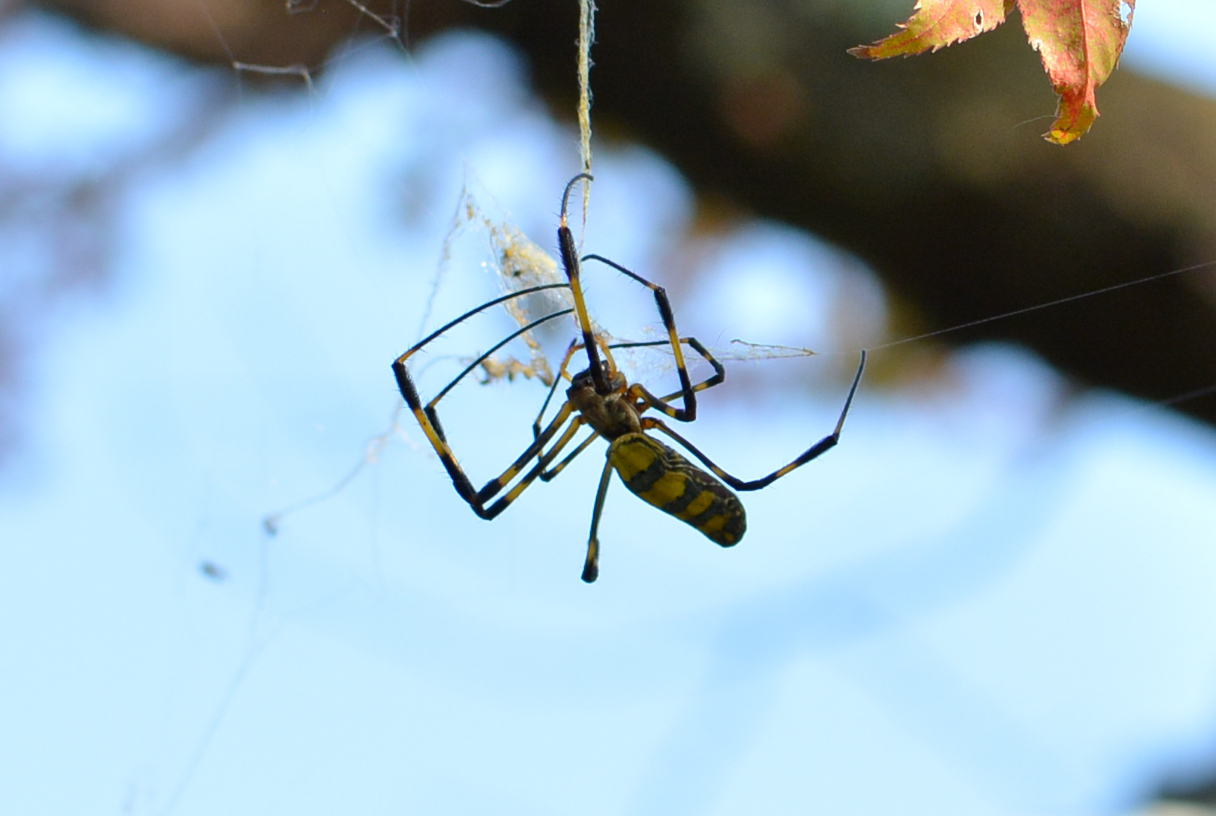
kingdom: Animalia
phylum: Arthropoda
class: Arachnida
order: Araneae
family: Araneidae
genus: Trichonephila
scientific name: Trichonephila clavata
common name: Jorō spider
